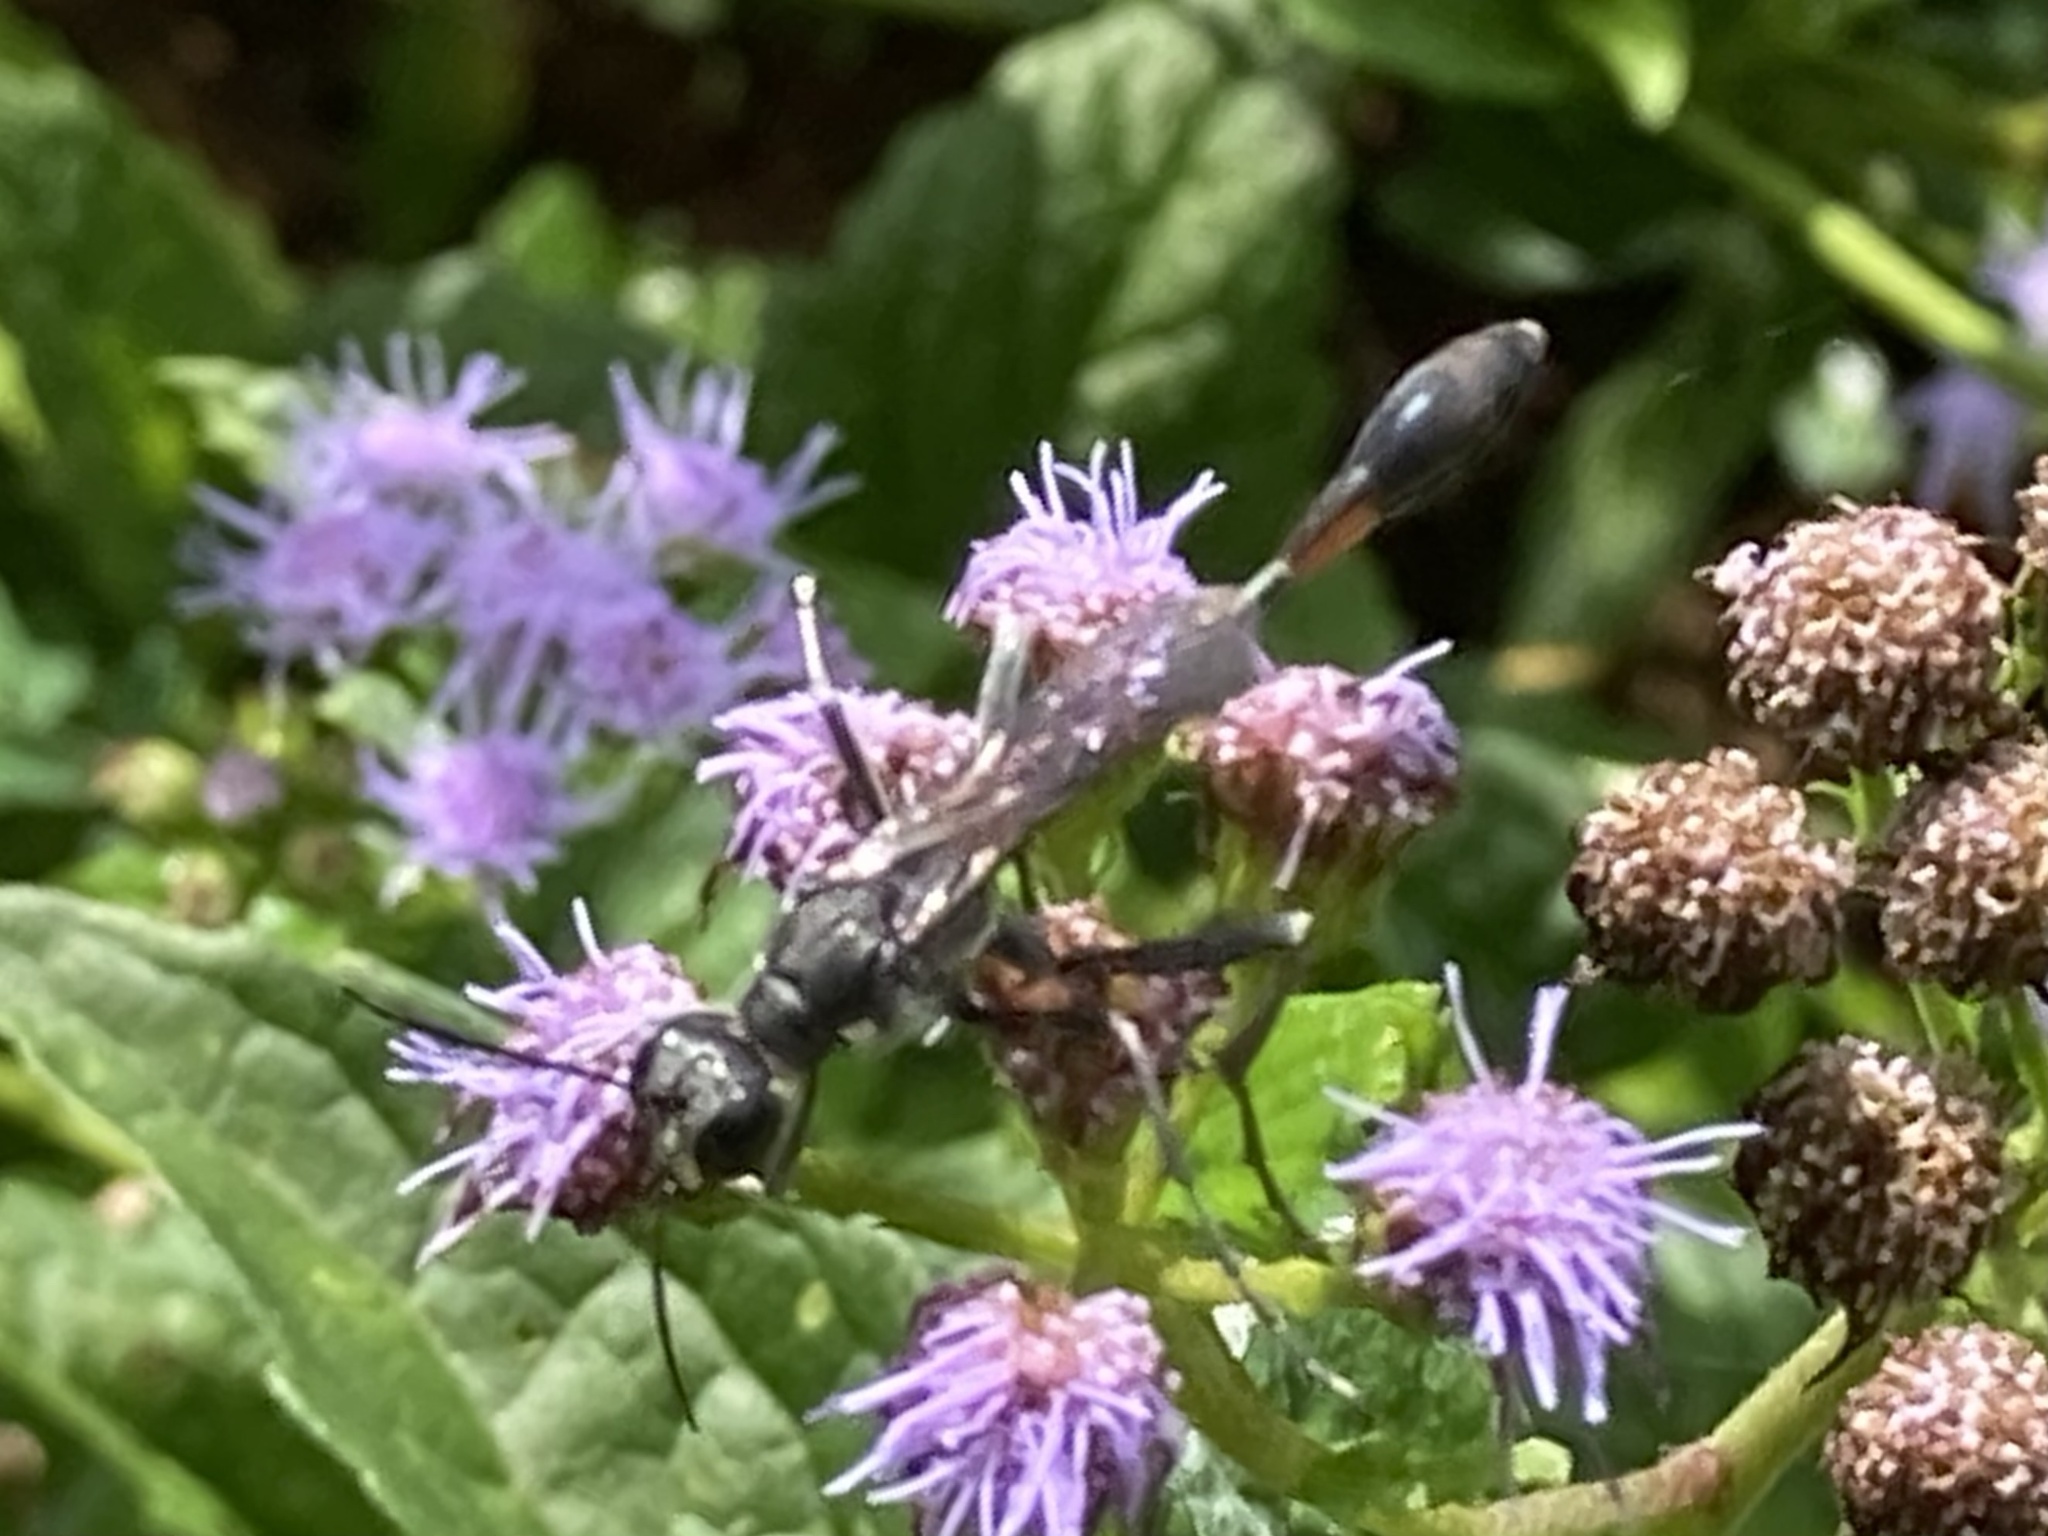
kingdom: Animalia
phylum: Arthropoda
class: Insecta
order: Hymenoptera
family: Sphecidae
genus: Ammophila
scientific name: Ammophila procera
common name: Common thread-waisted wasp
